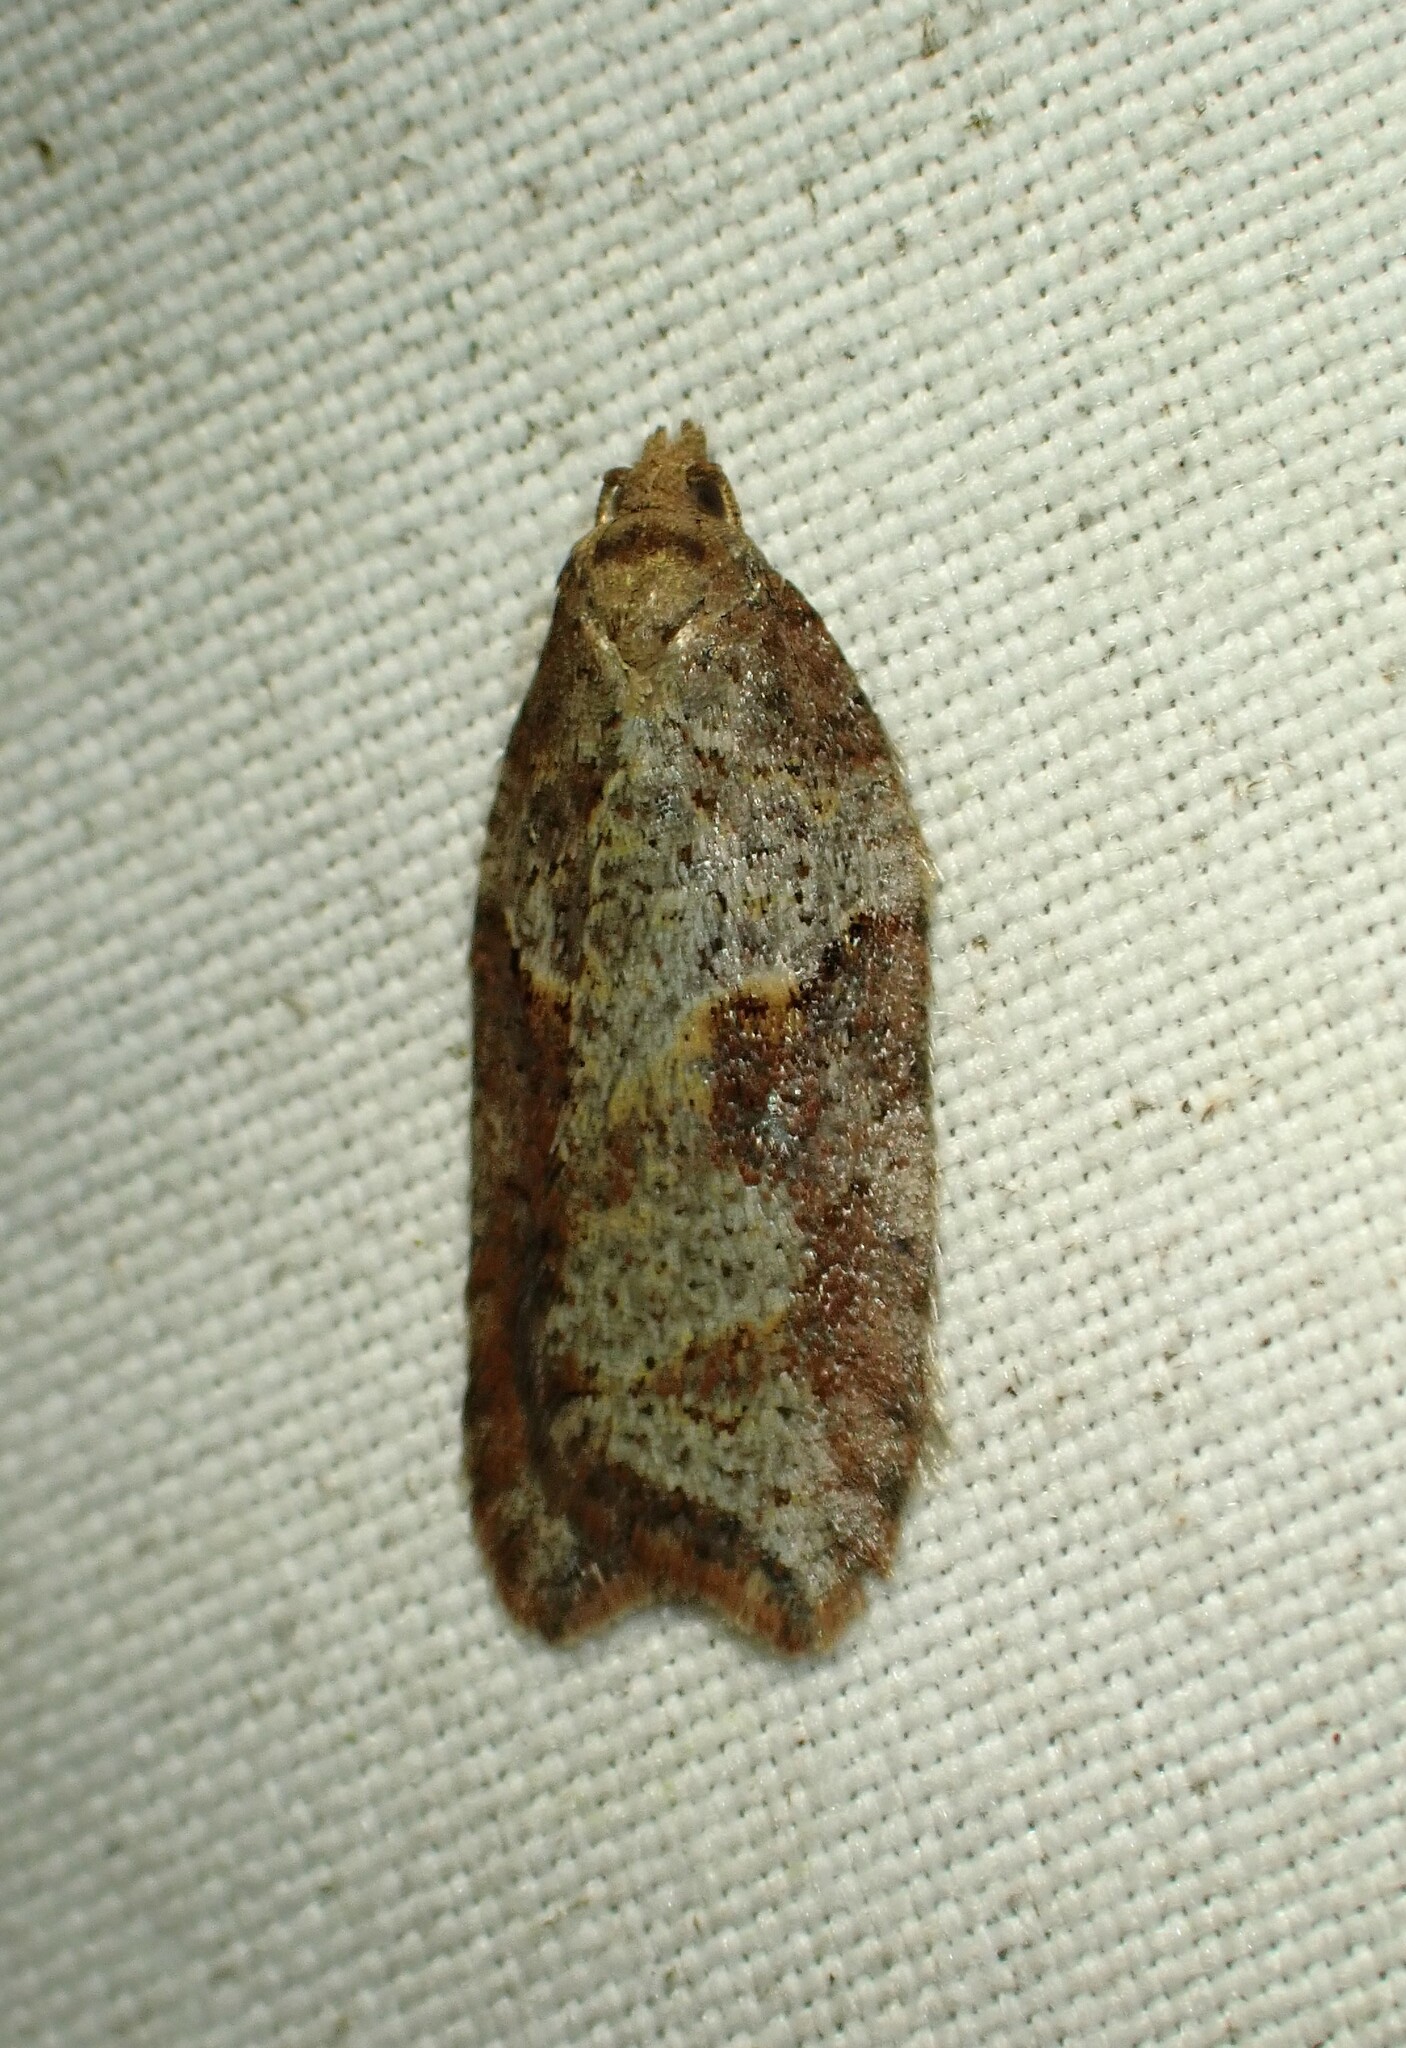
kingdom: Animalia
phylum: Arthropoda
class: Insecta
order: Lepidoptera
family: Tortricidae
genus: Acleris
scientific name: Acleris maccana
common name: Marbled button
